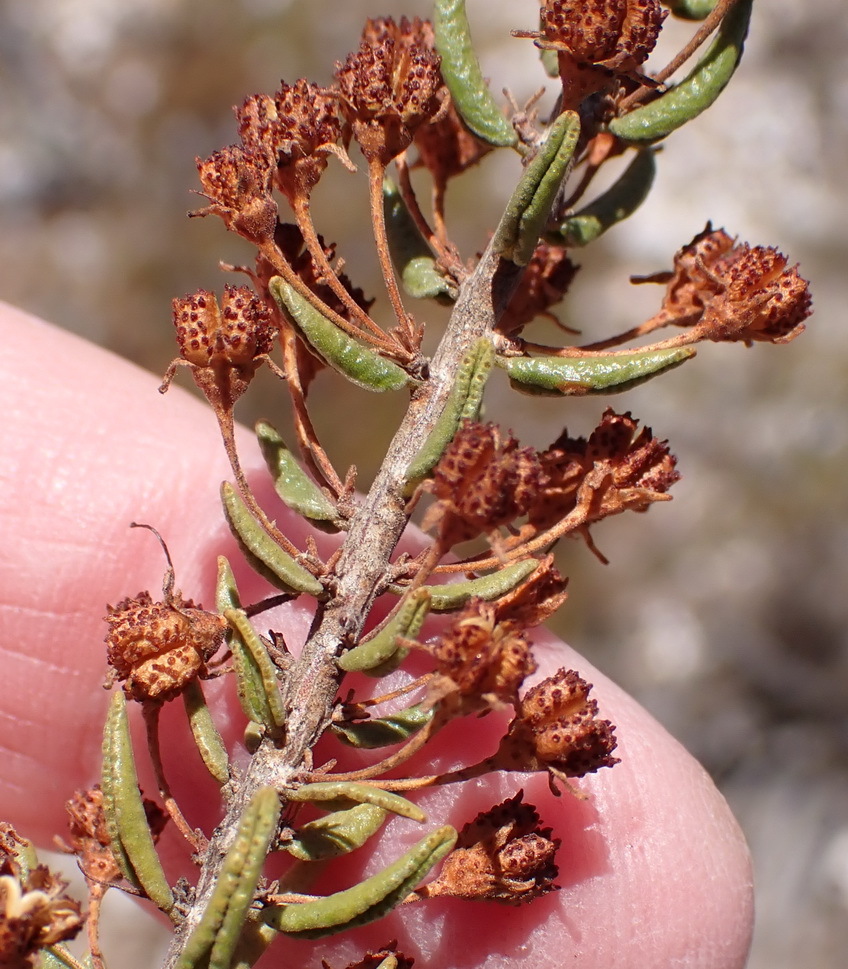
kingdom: Plantae
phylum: Tracheophyta
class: Magnoliopsida
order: Sapindales
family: Rutaceae
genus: Agathosma
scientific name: Agathosma purpurea
